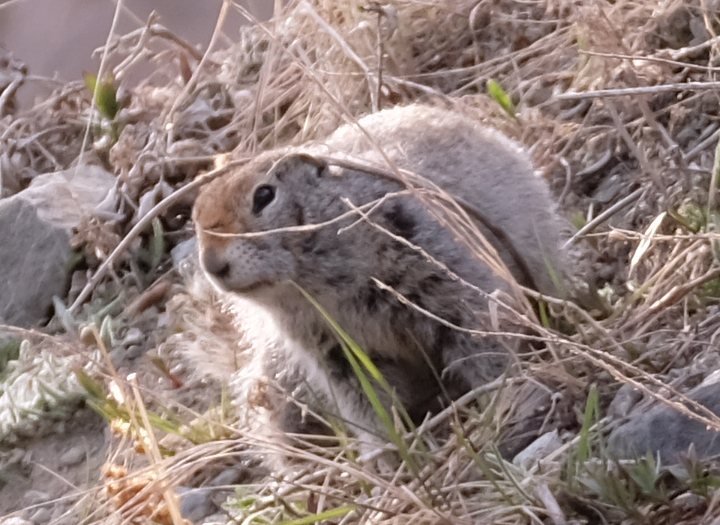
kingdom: Animalia
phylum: Chordata
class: Mammalia
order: Rodentia
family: Sciuridae
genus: Urocitellus
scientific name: Urocitellus parryii
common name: Arctic ground squirrel
